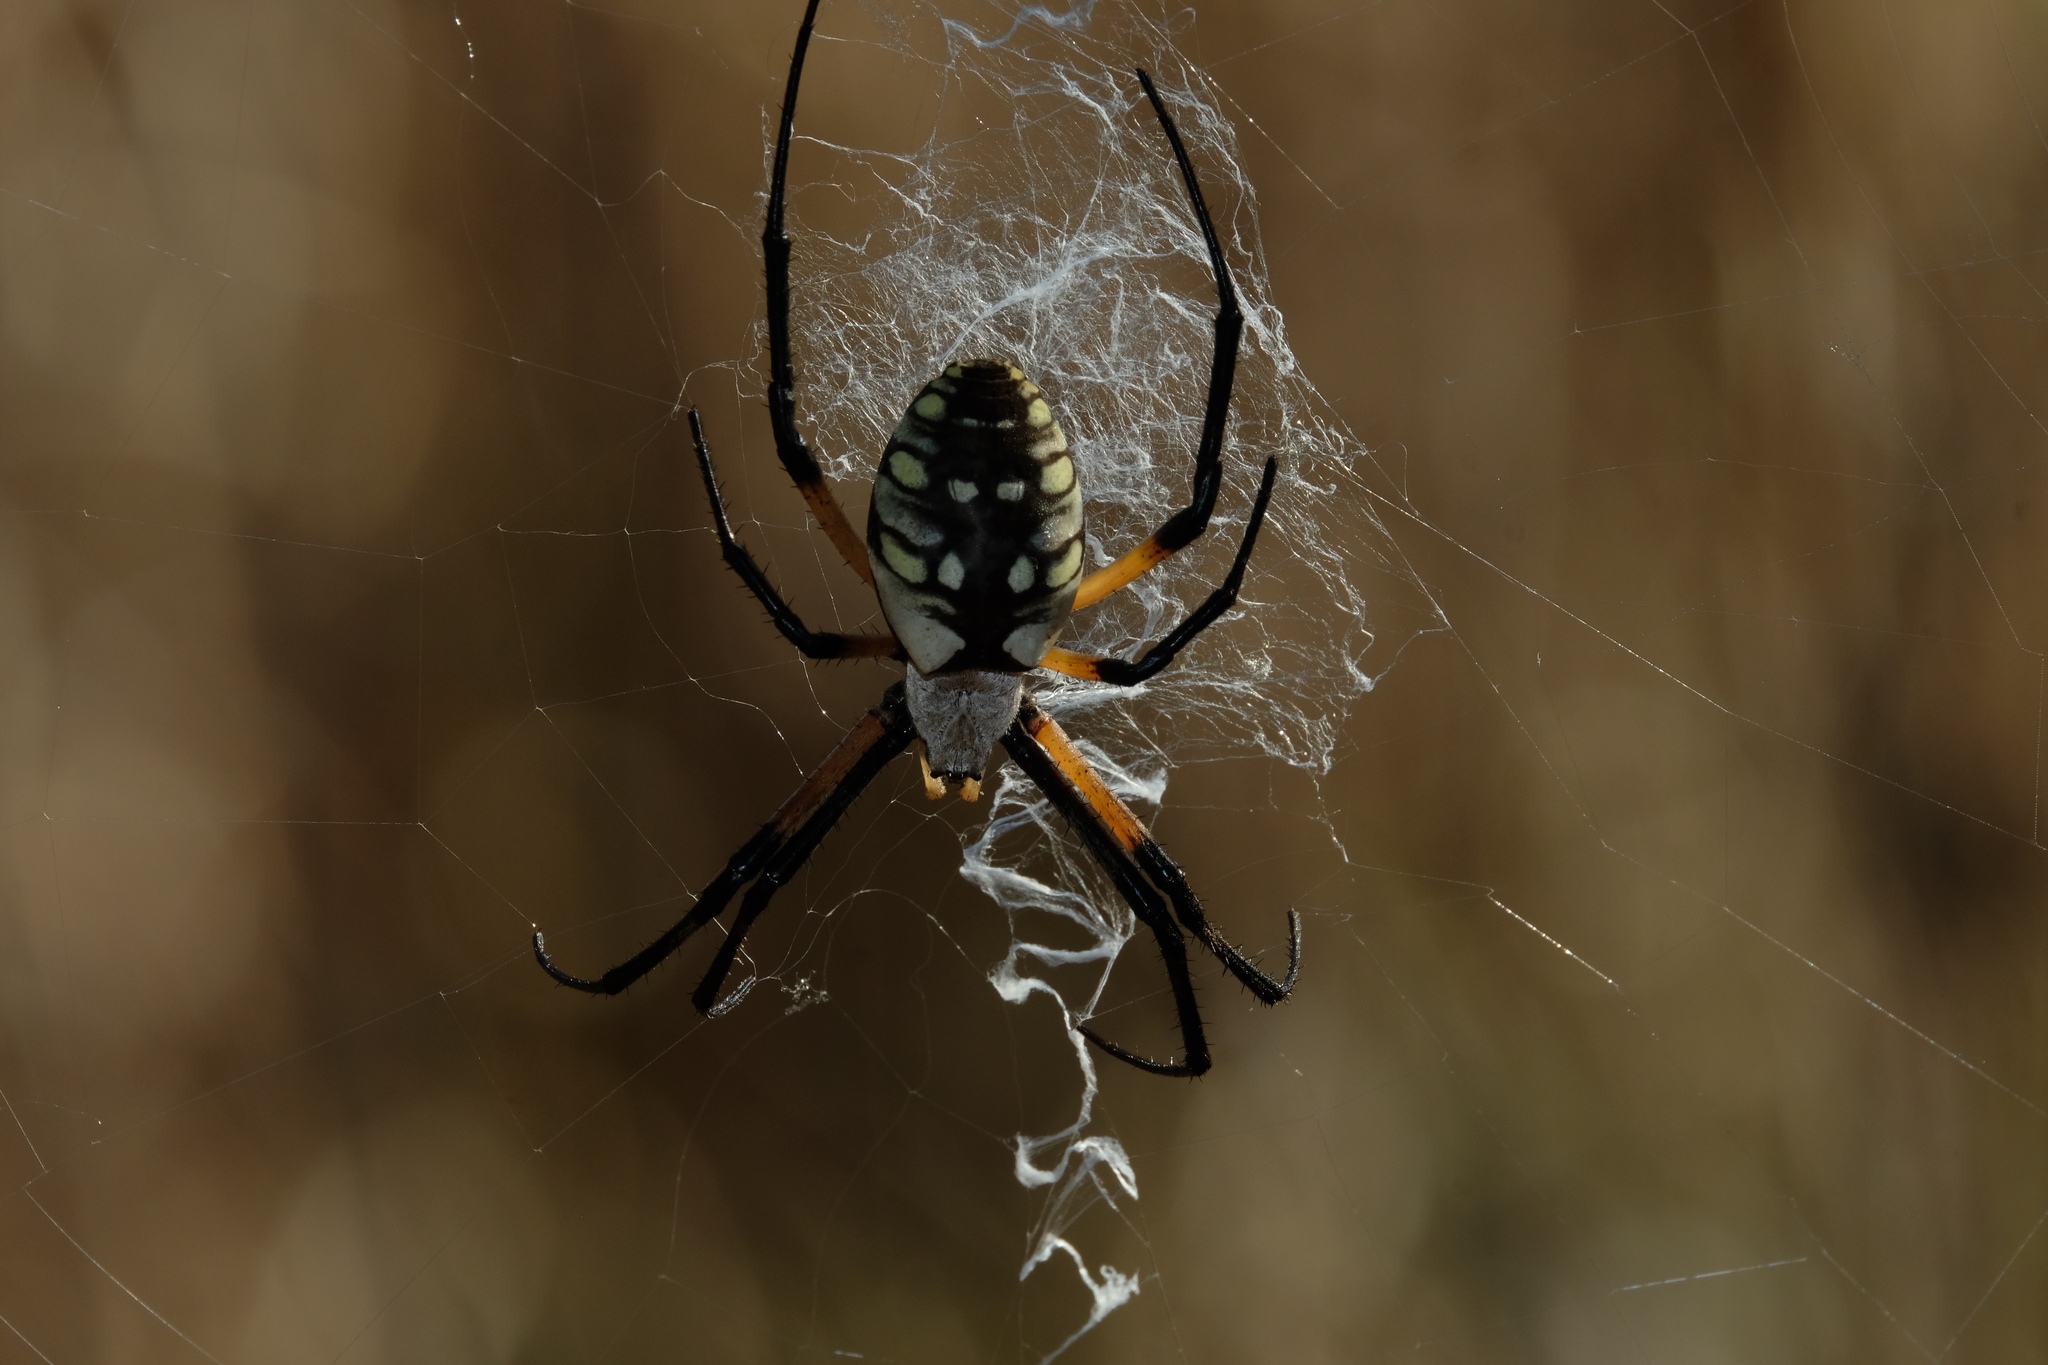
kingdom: Animalia
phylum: Arthropoda
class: Arachnida
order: Araneae
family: Araneidae
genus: Argiope
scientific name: Argiope aurantia
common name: Orb weavers
